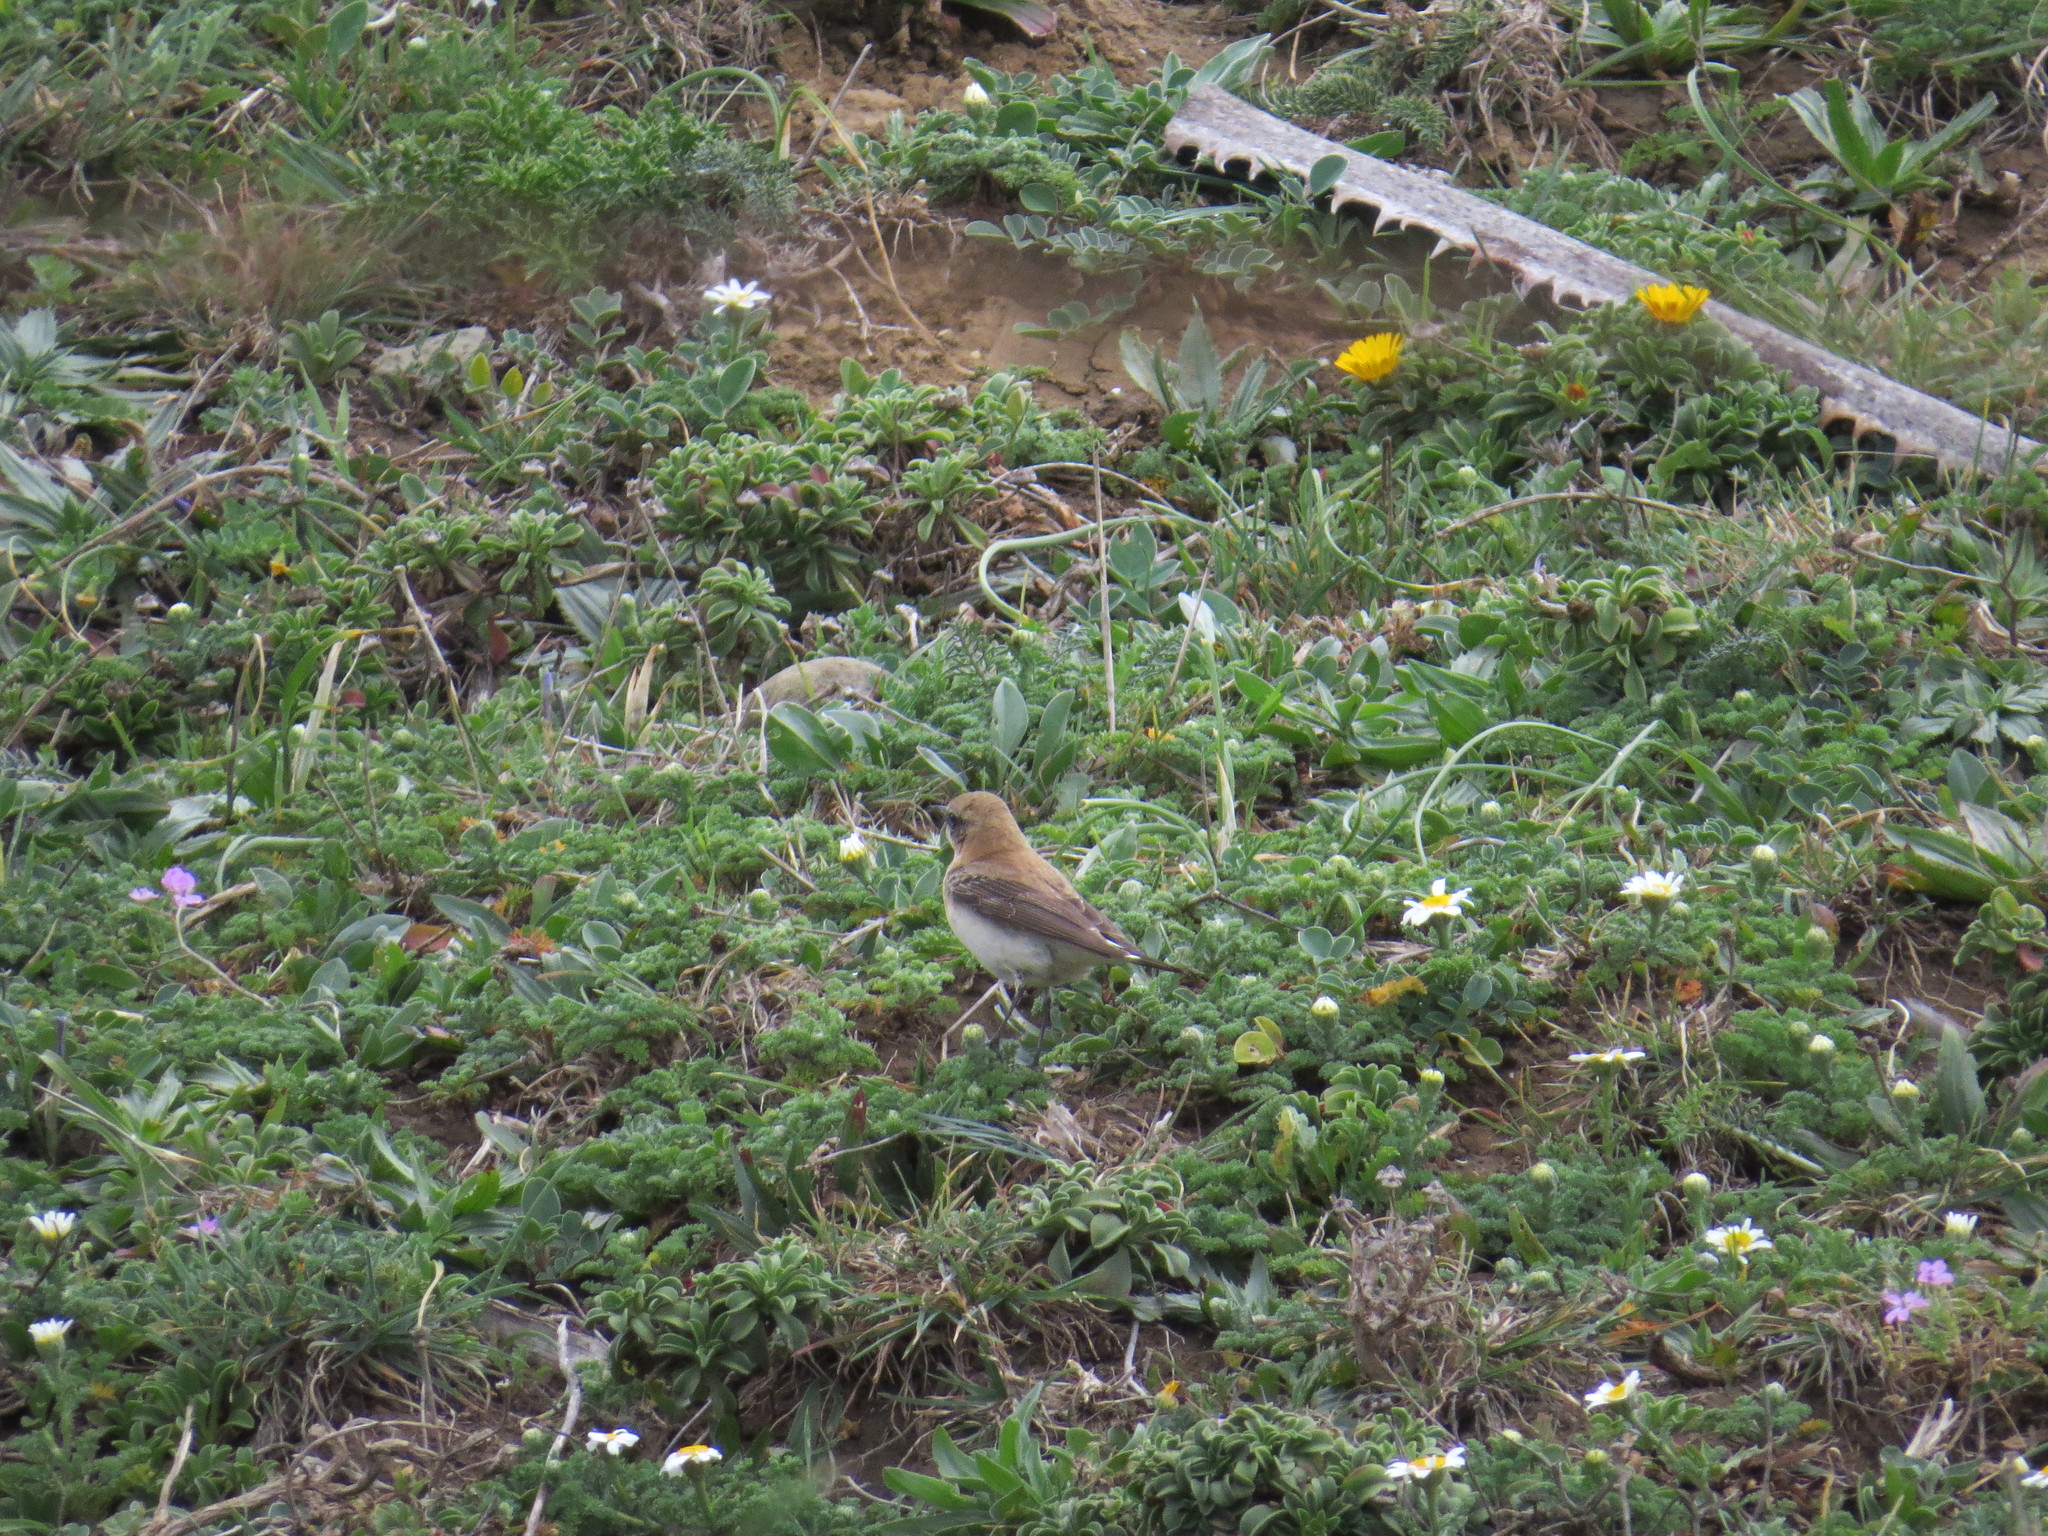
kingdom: Animalia
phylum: Chordata
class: Aves
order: Passeriformes
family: Muscicapidae
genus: Oenanthe
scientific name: Oenanthe hispanica
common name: Black-eared wheatear
